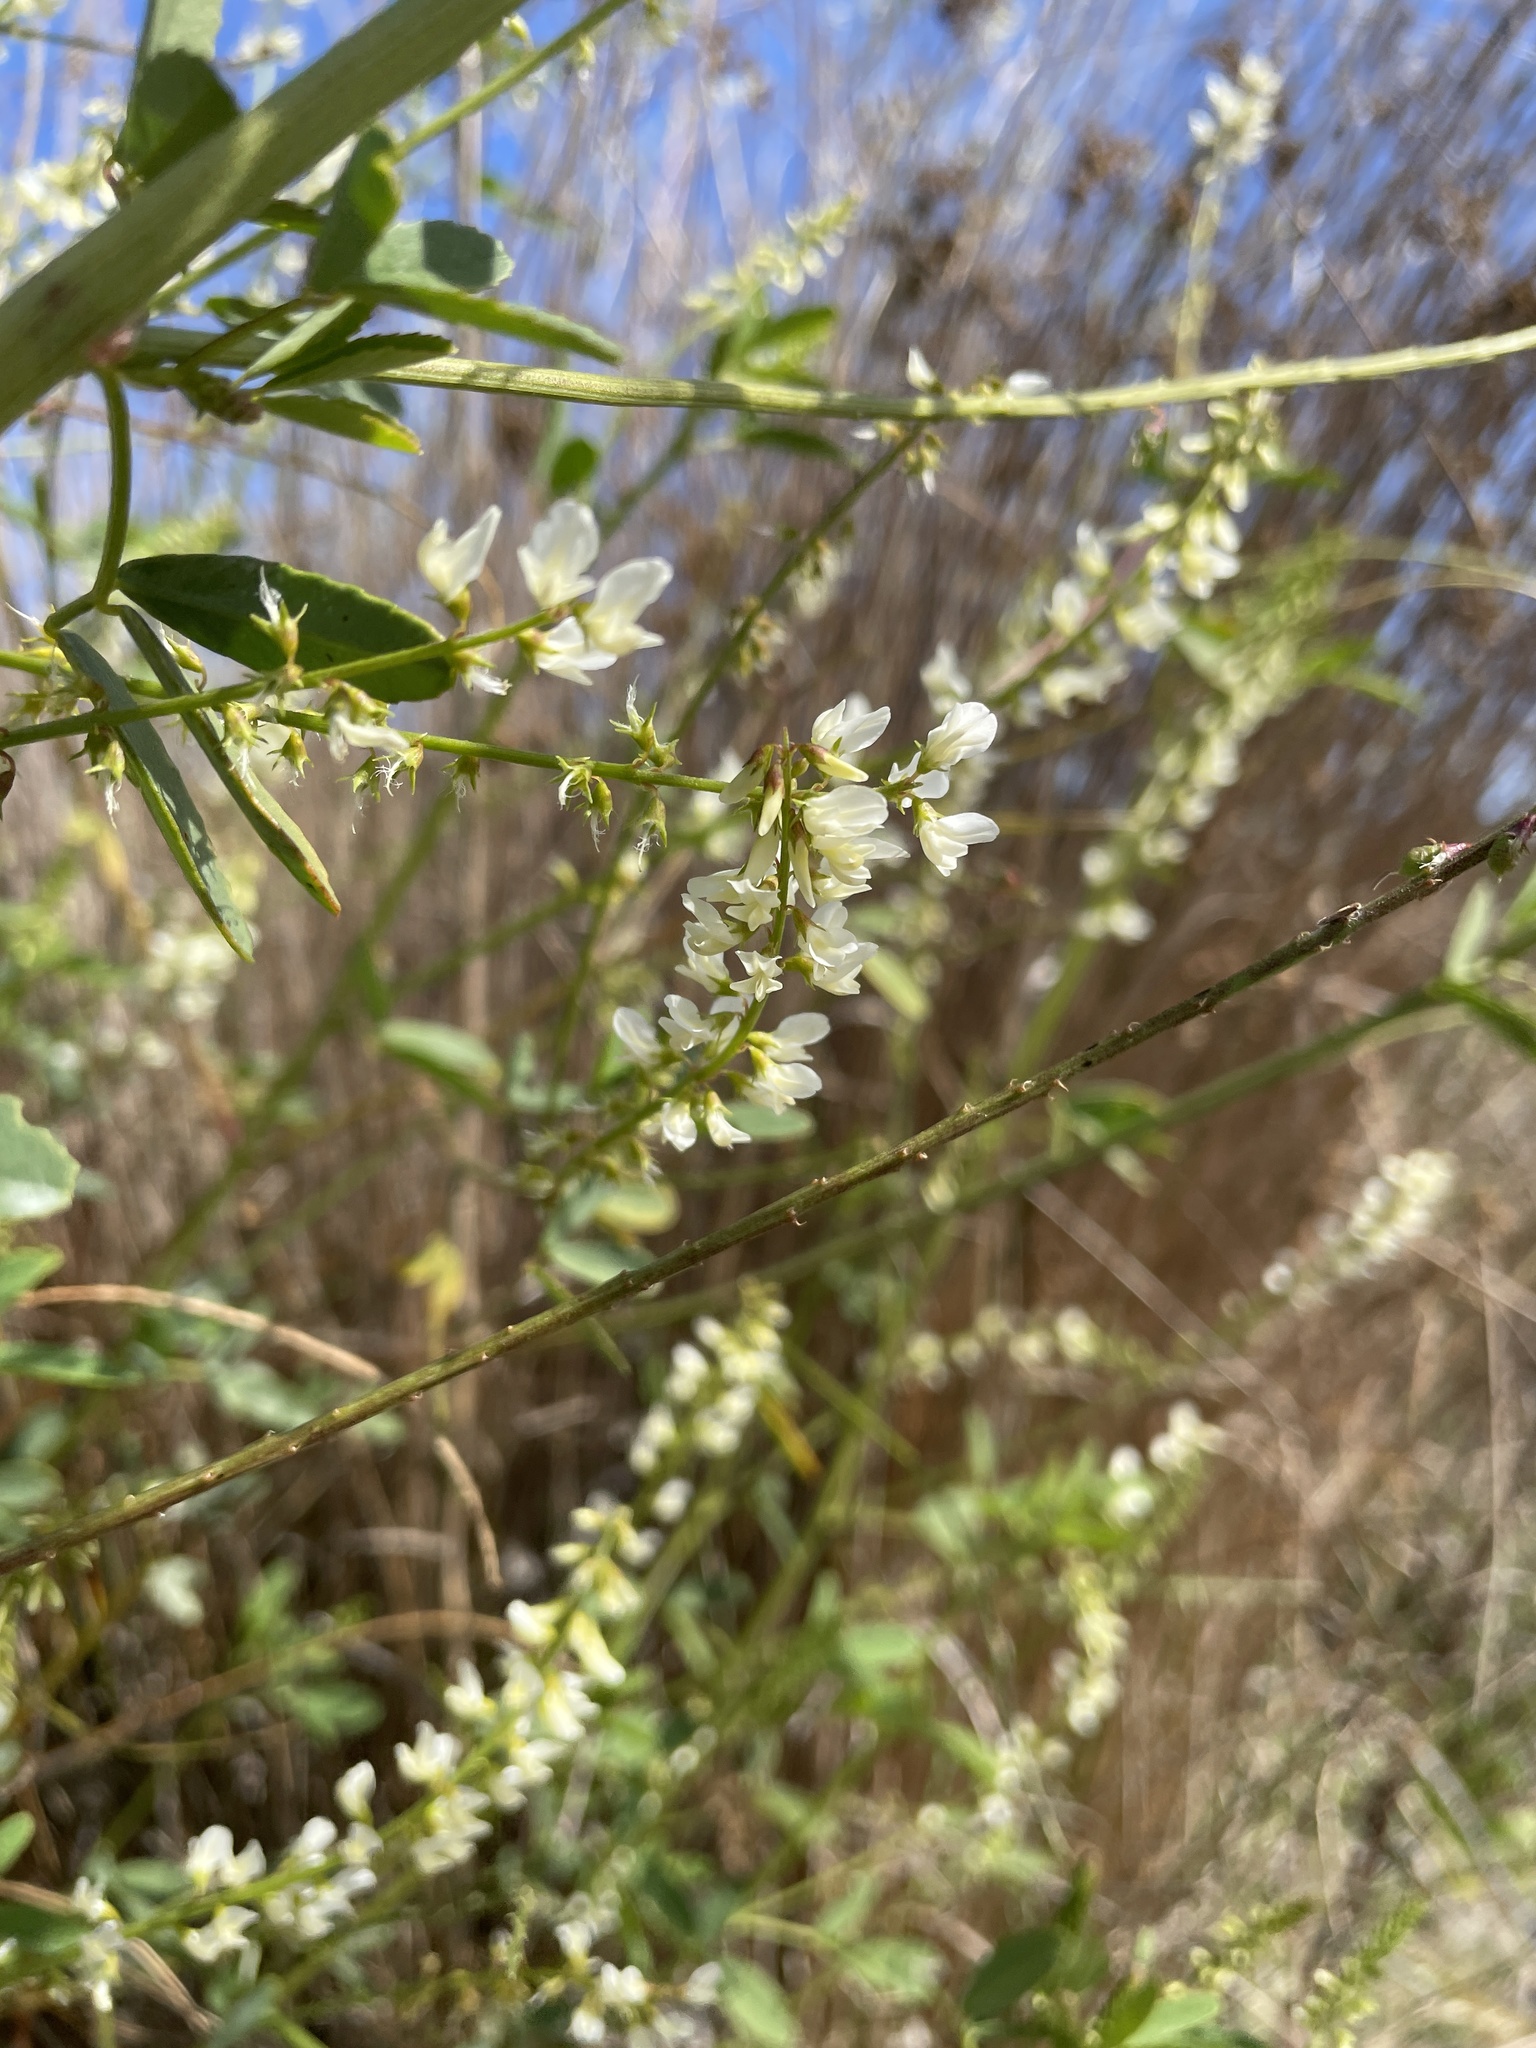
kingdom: Plantae
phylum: Tracheophyta
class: Magnoliopsida
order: Fabales
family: Fabaceae
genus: Melilotus
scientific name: Melilotus albus
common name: White melilot
